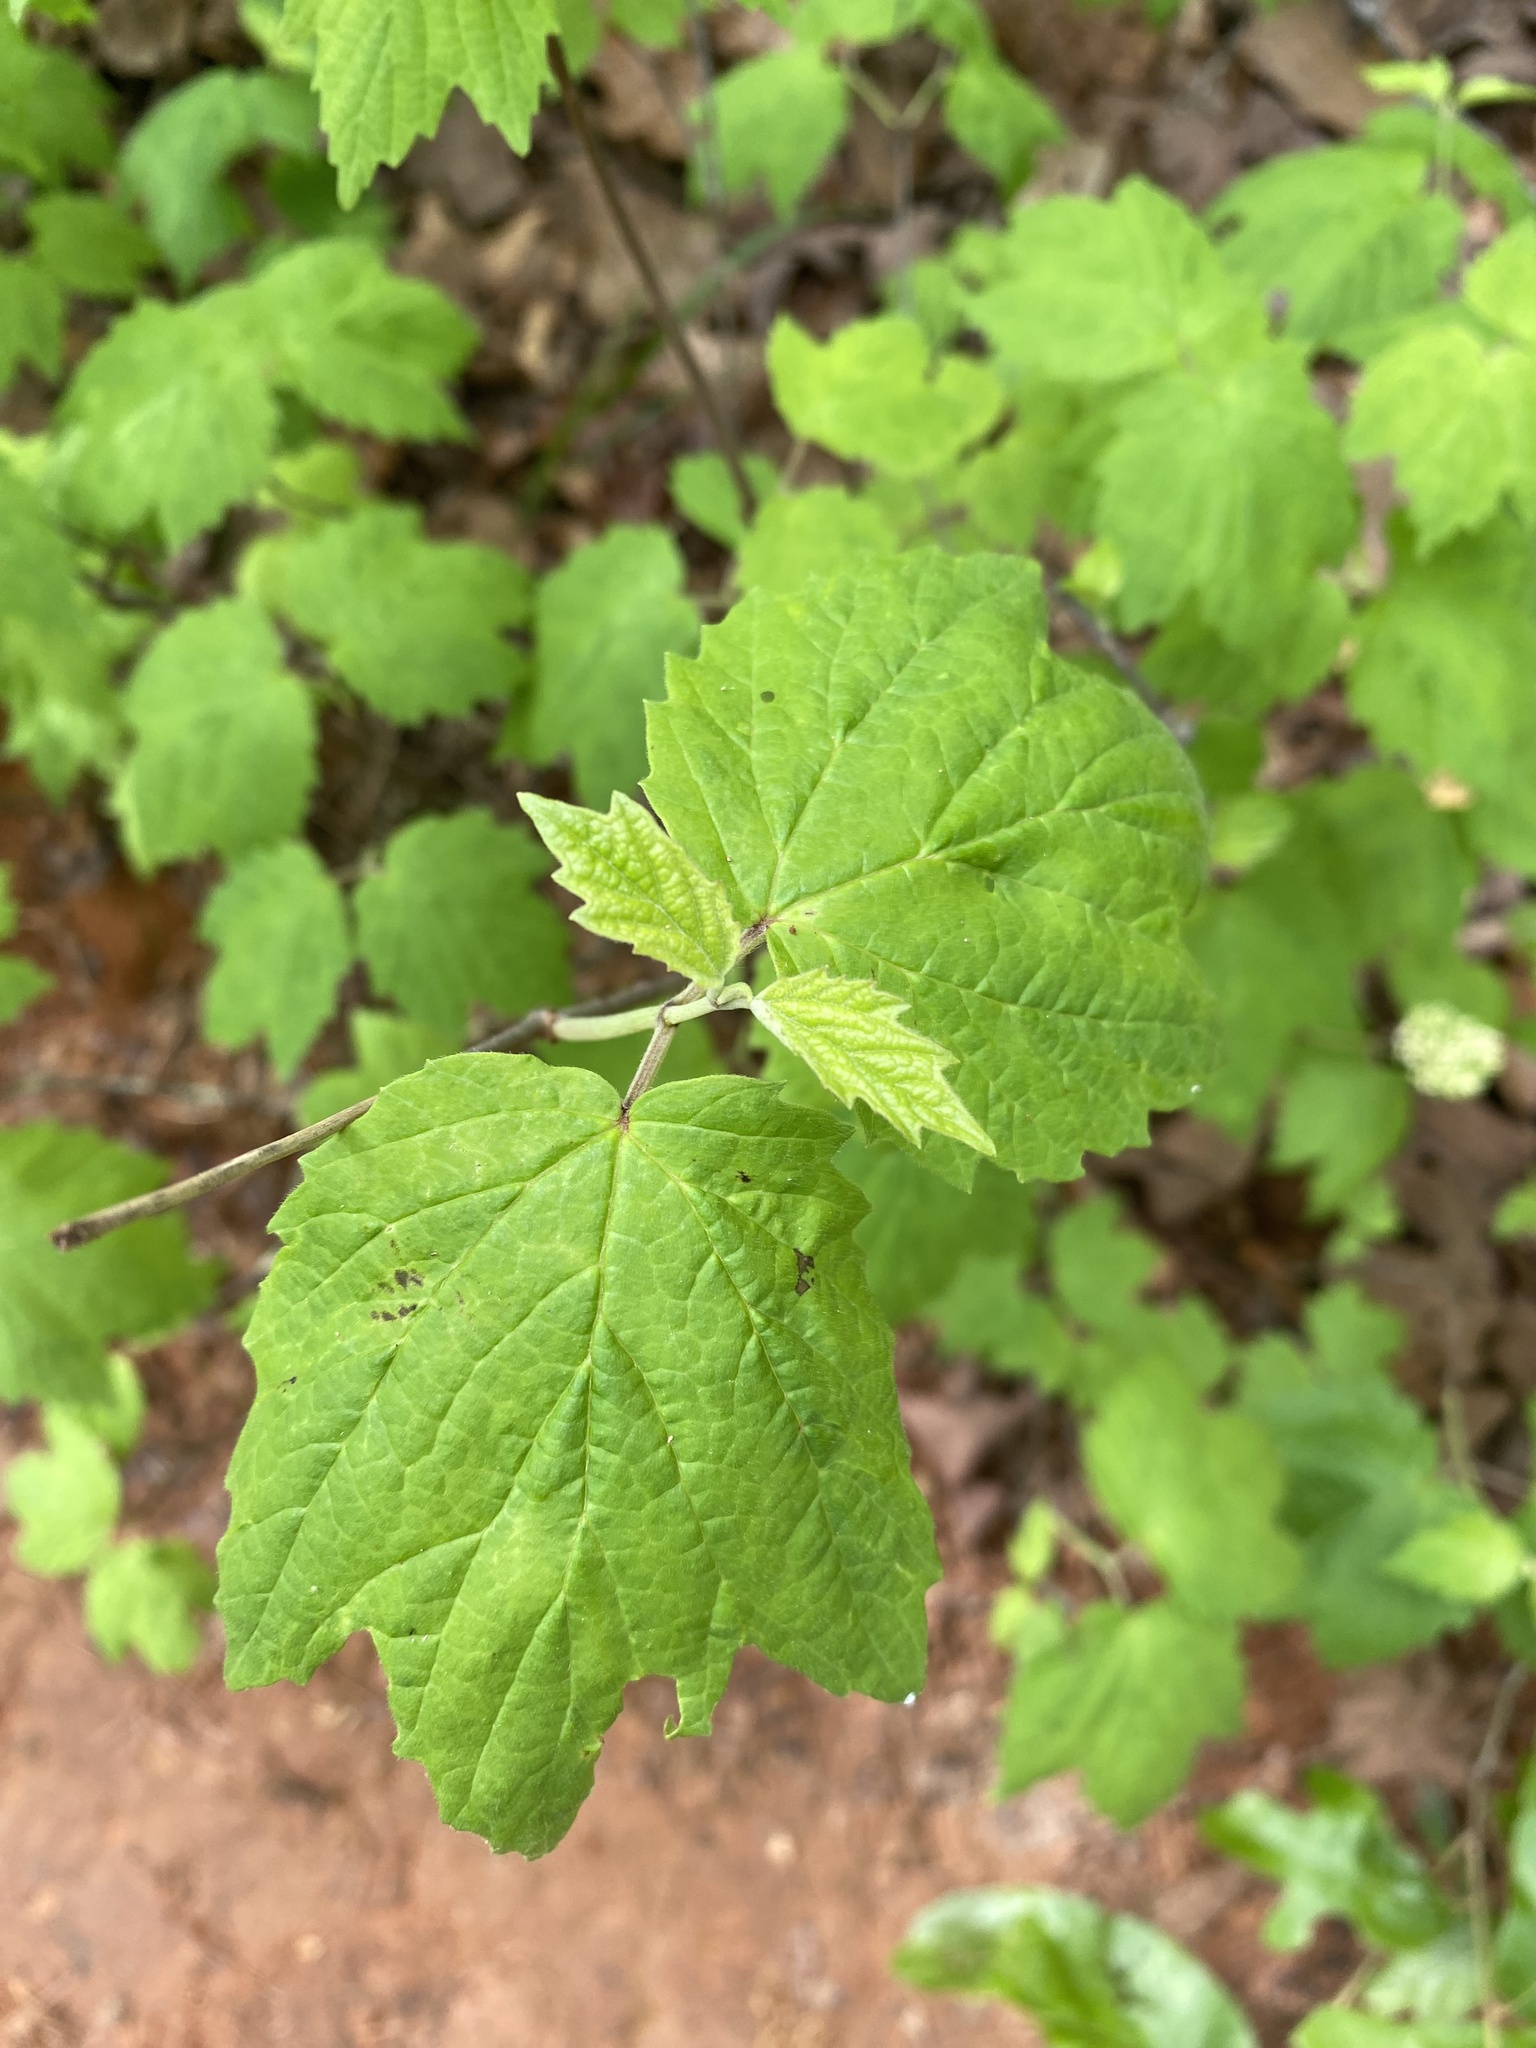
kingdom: Plantae
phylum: Tracheophyta
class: Magnoliopsida
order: Dipsacales
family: Viburnaceae
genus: Viburnum
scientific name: Viburnum acerifolium
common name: Dockmackie
